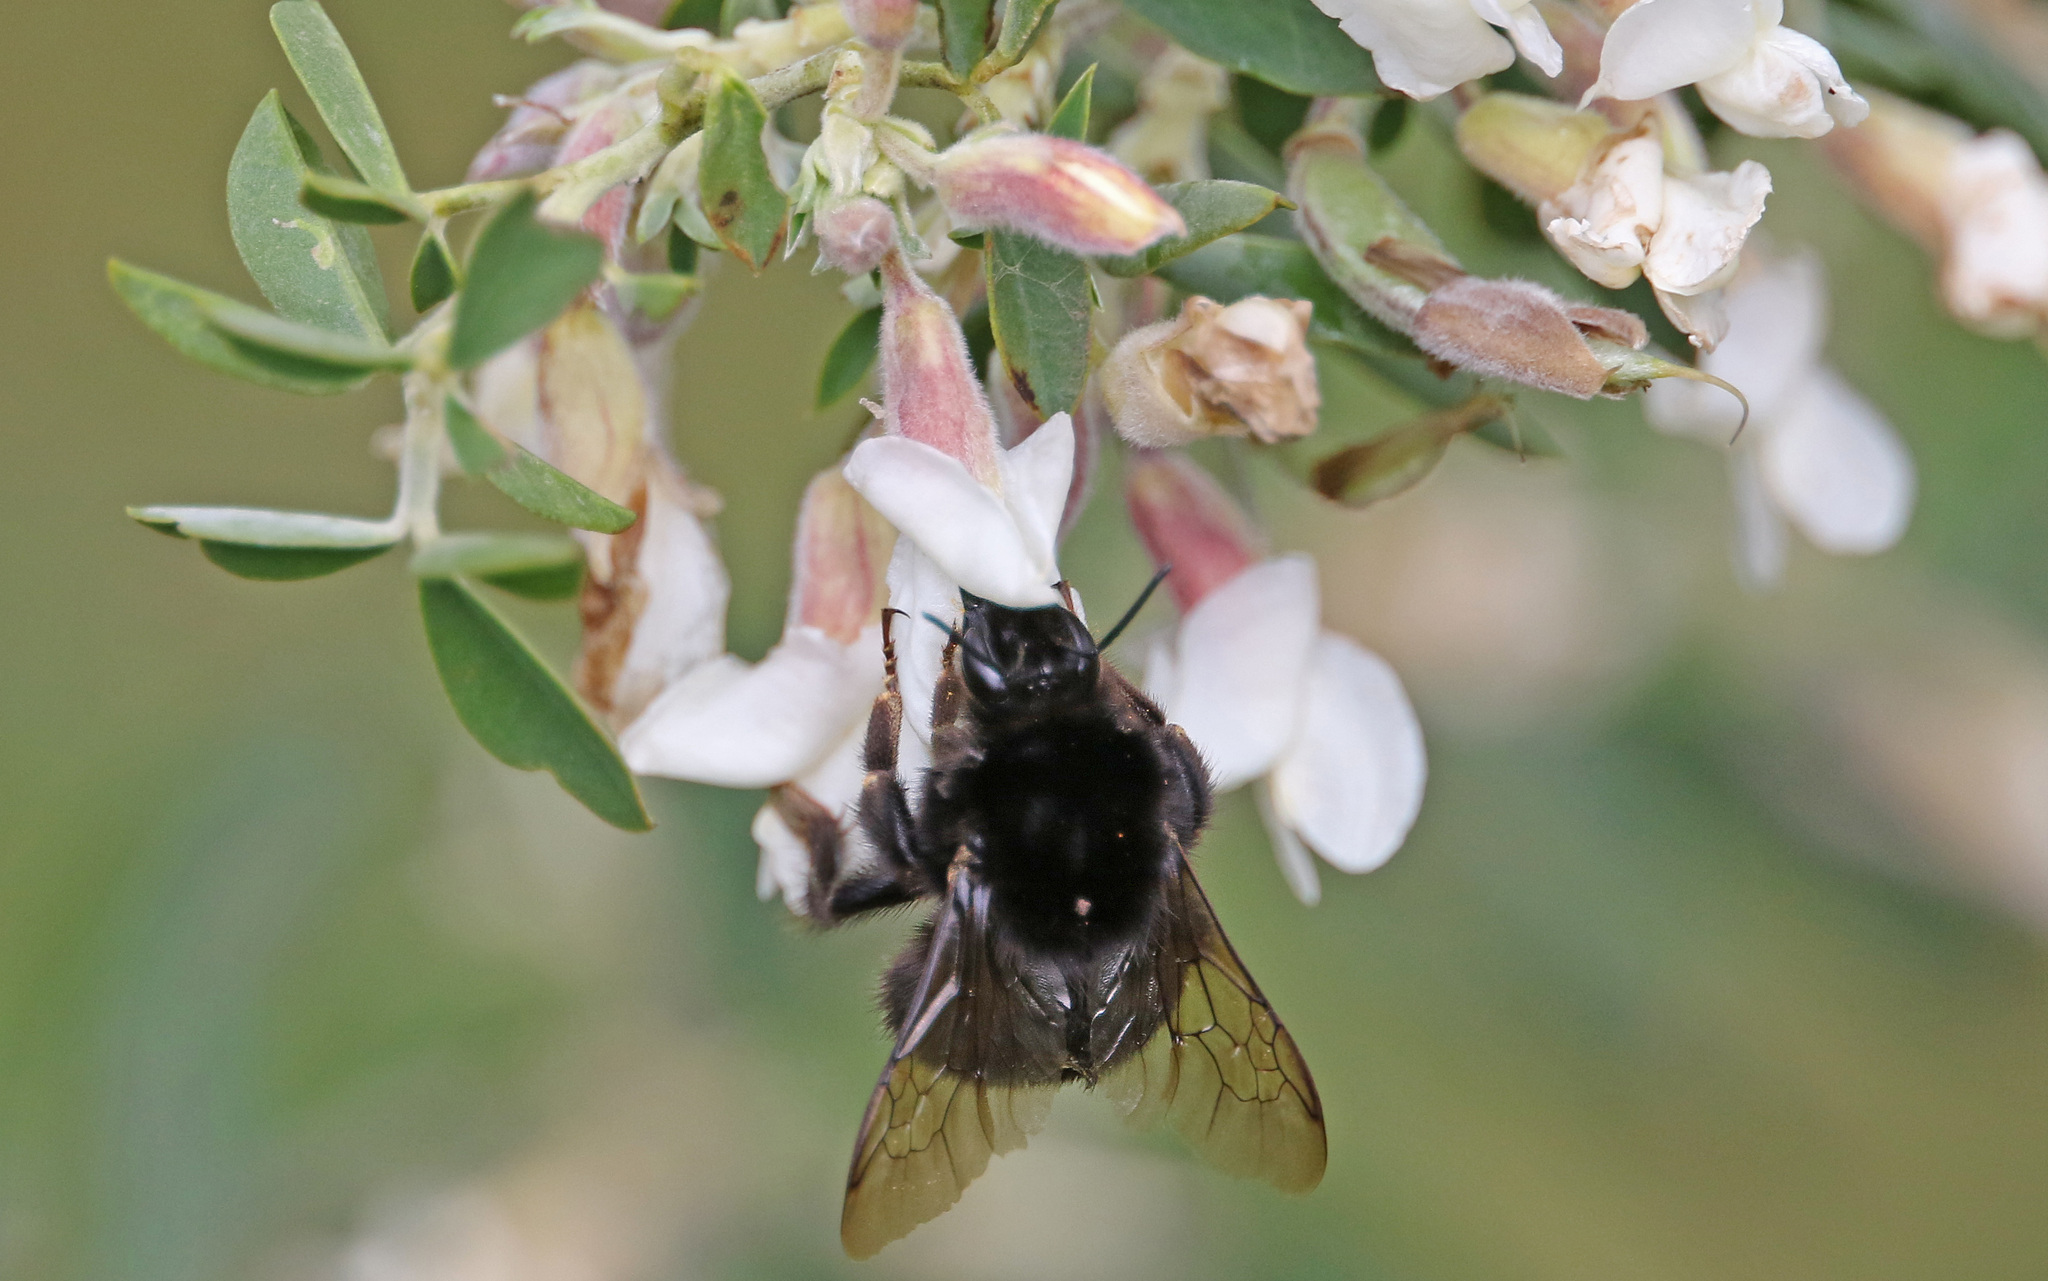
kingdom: Animalia
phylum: Arthropoda
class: Insecta
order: Hymenoptera
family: Apidae
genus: Bombus
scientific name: Bombus terrestris
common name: Buff-tailed bumblebee
